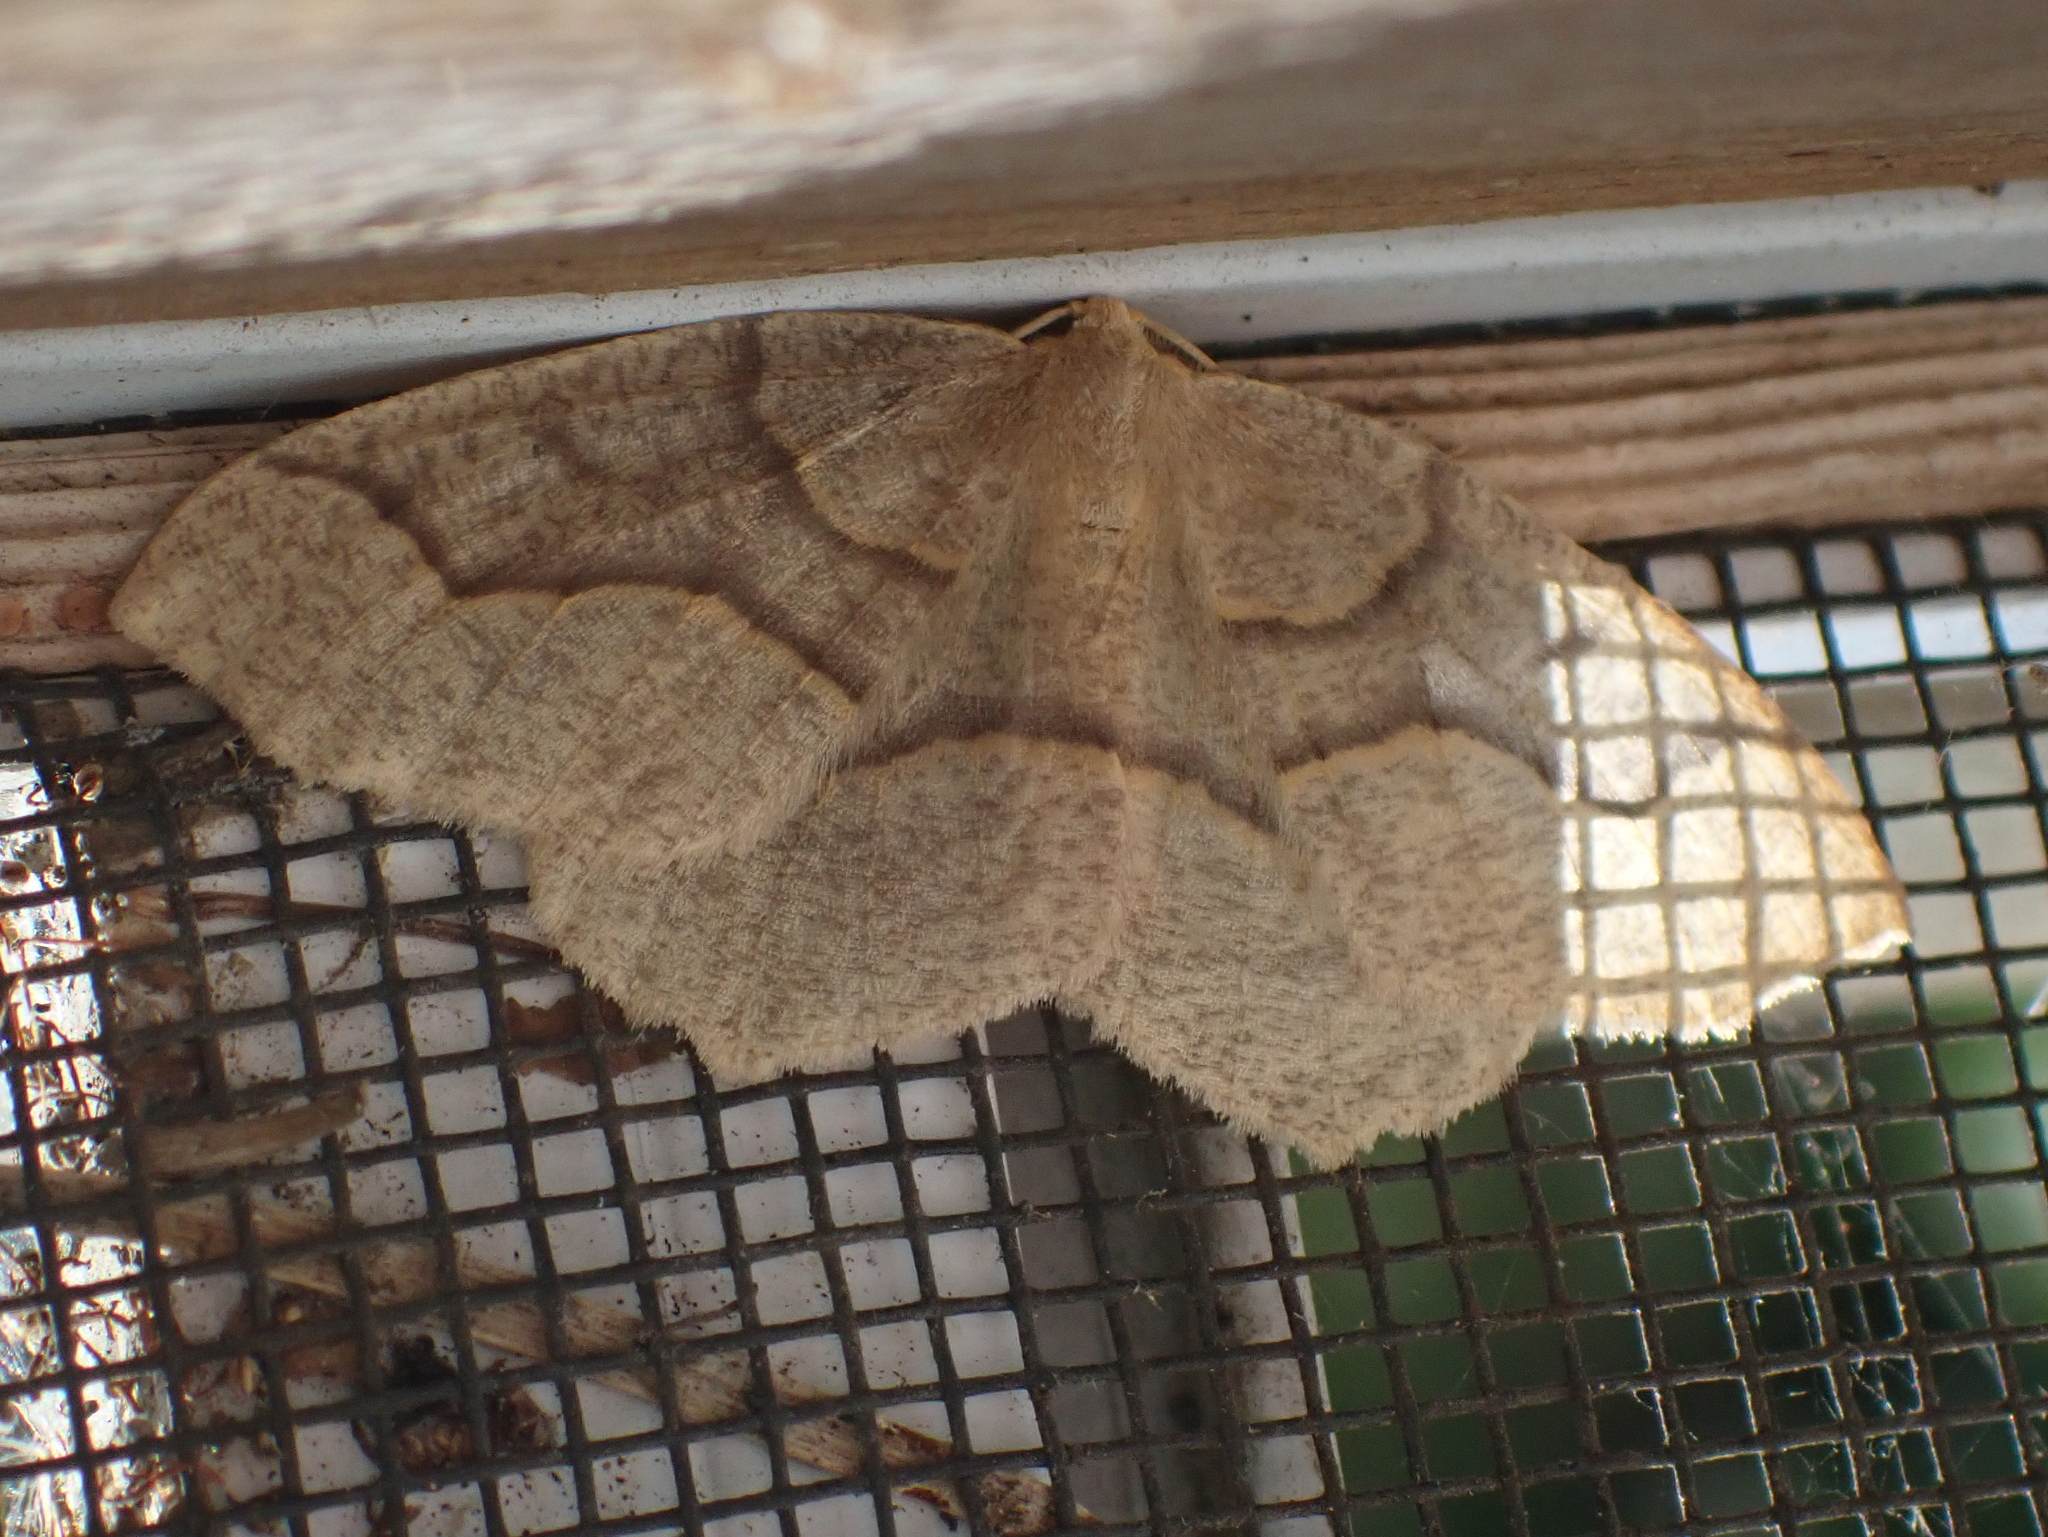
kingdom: Animalia
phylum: Arthropoda
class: Insecta
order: Lepidoptera
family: Geometridae
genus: Lambdina
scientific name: Lambdina fiscellaria
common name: Hemlock looper
